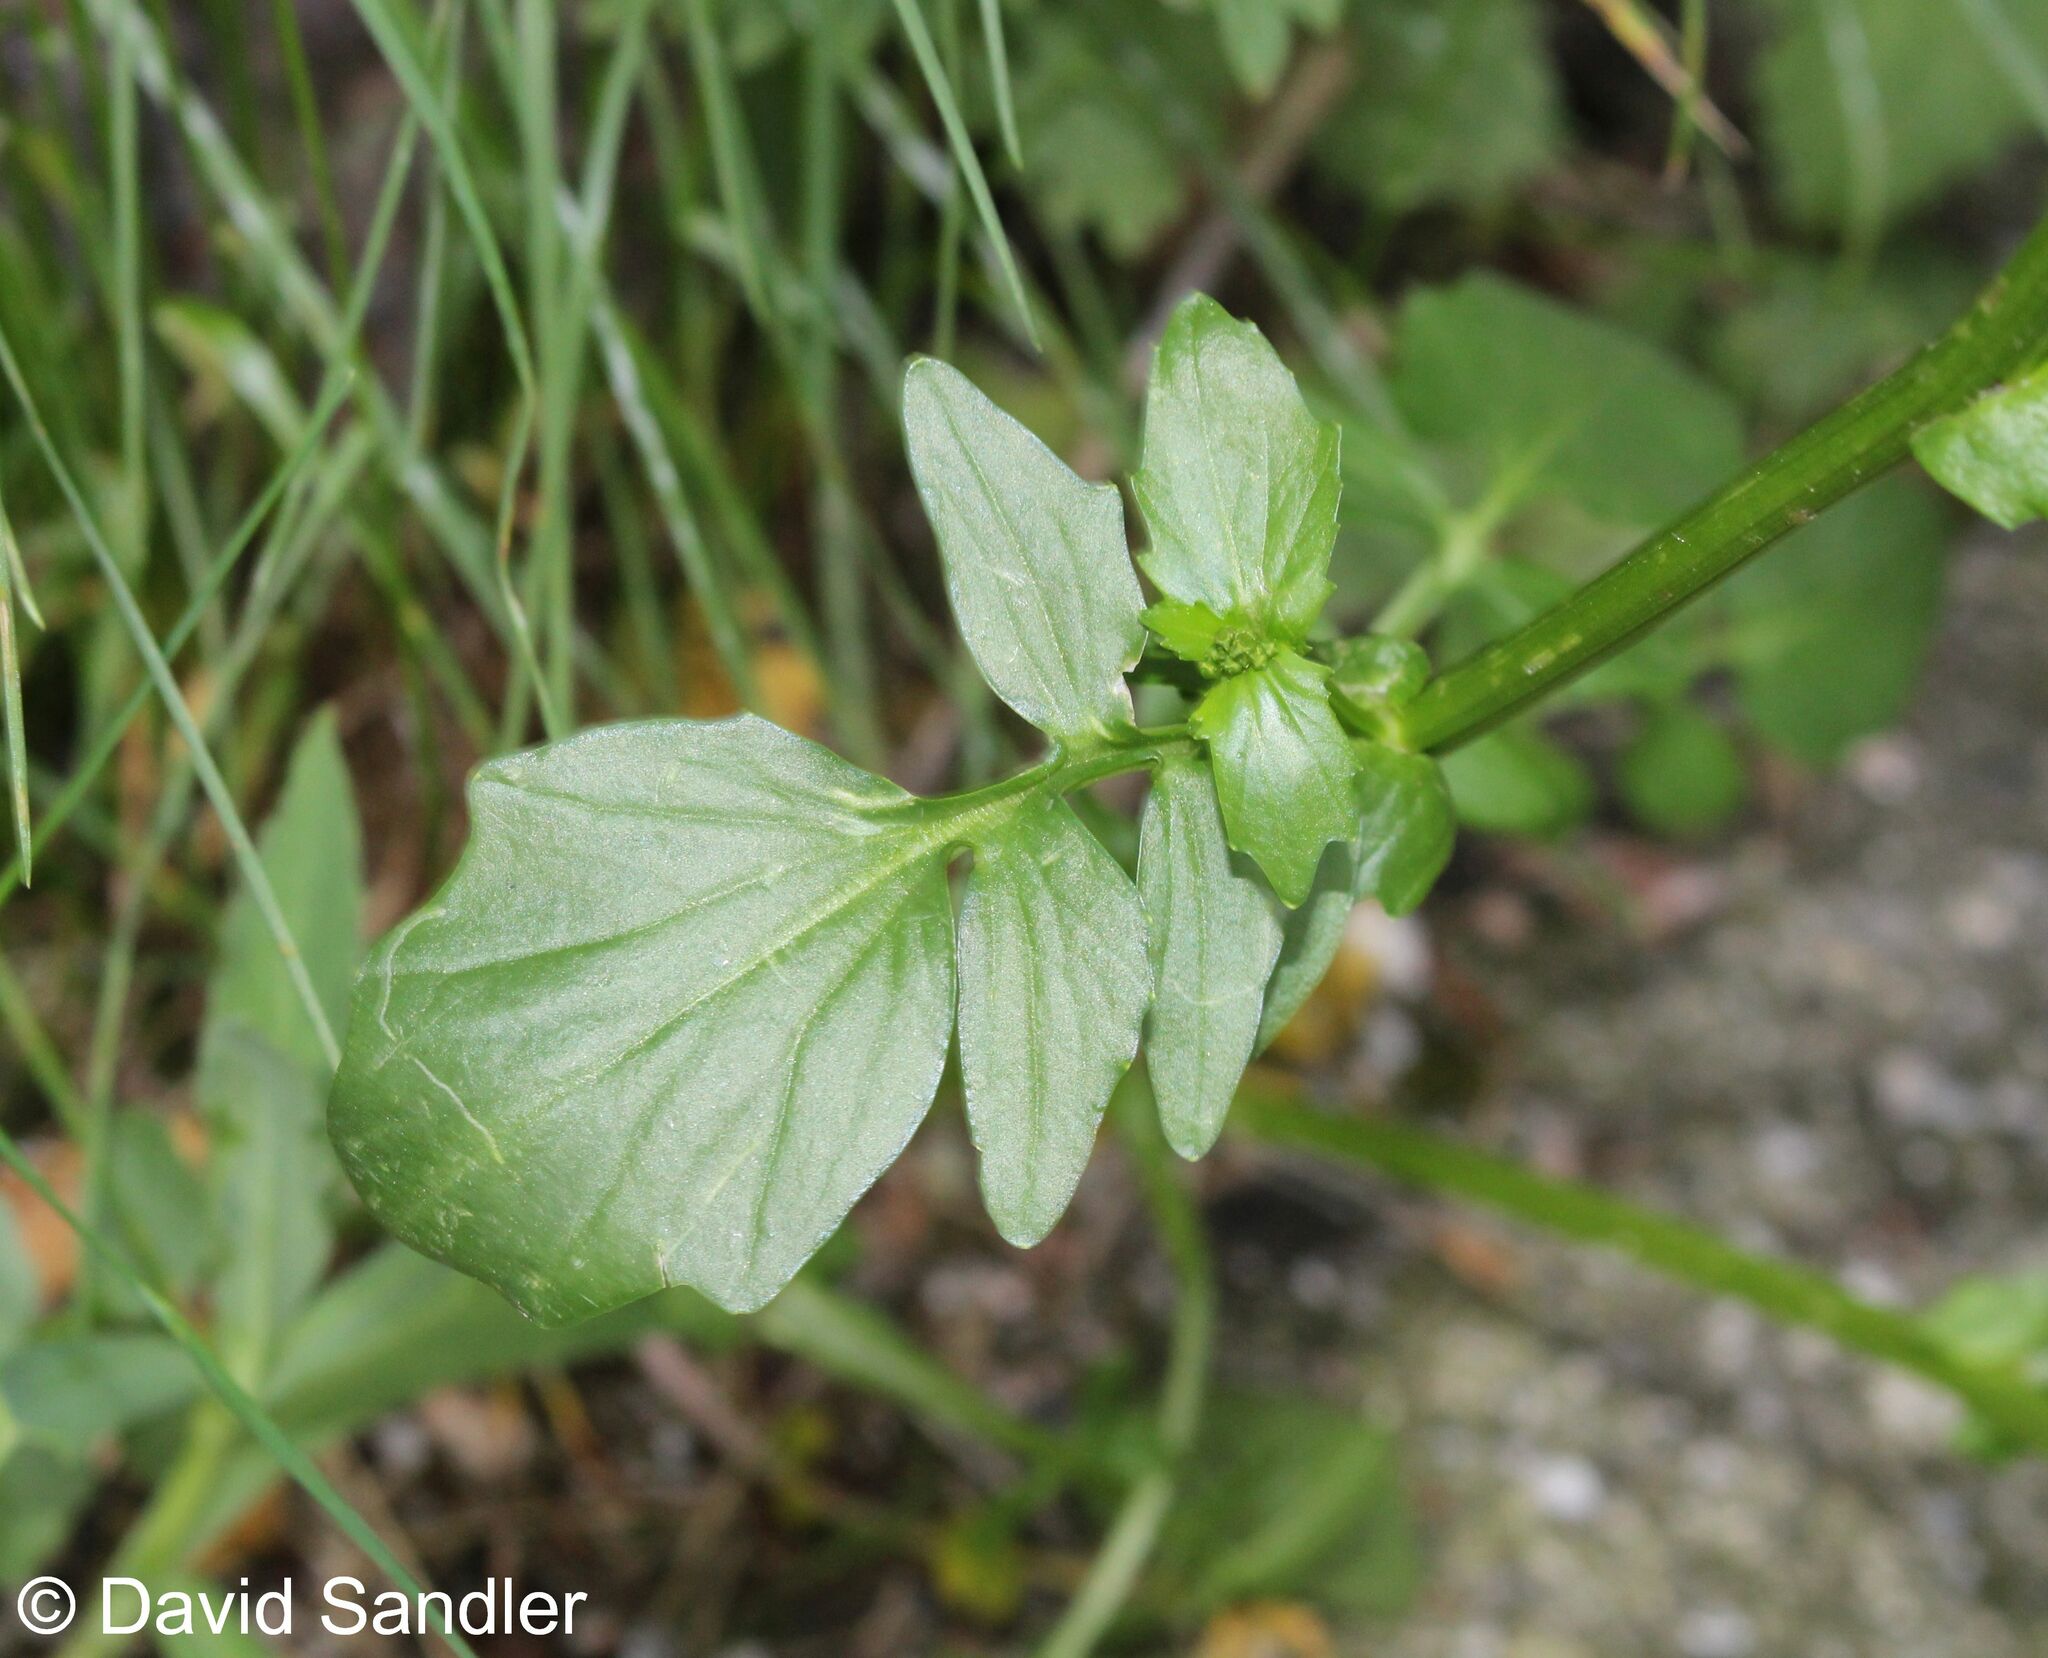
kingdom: Plantae
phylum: Tracheophyta
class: Magnoliopsida
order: Brassicales
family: Brassicaceae
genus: Barbarea
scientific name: Barbarea vulgaris
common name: Cressy-greens
